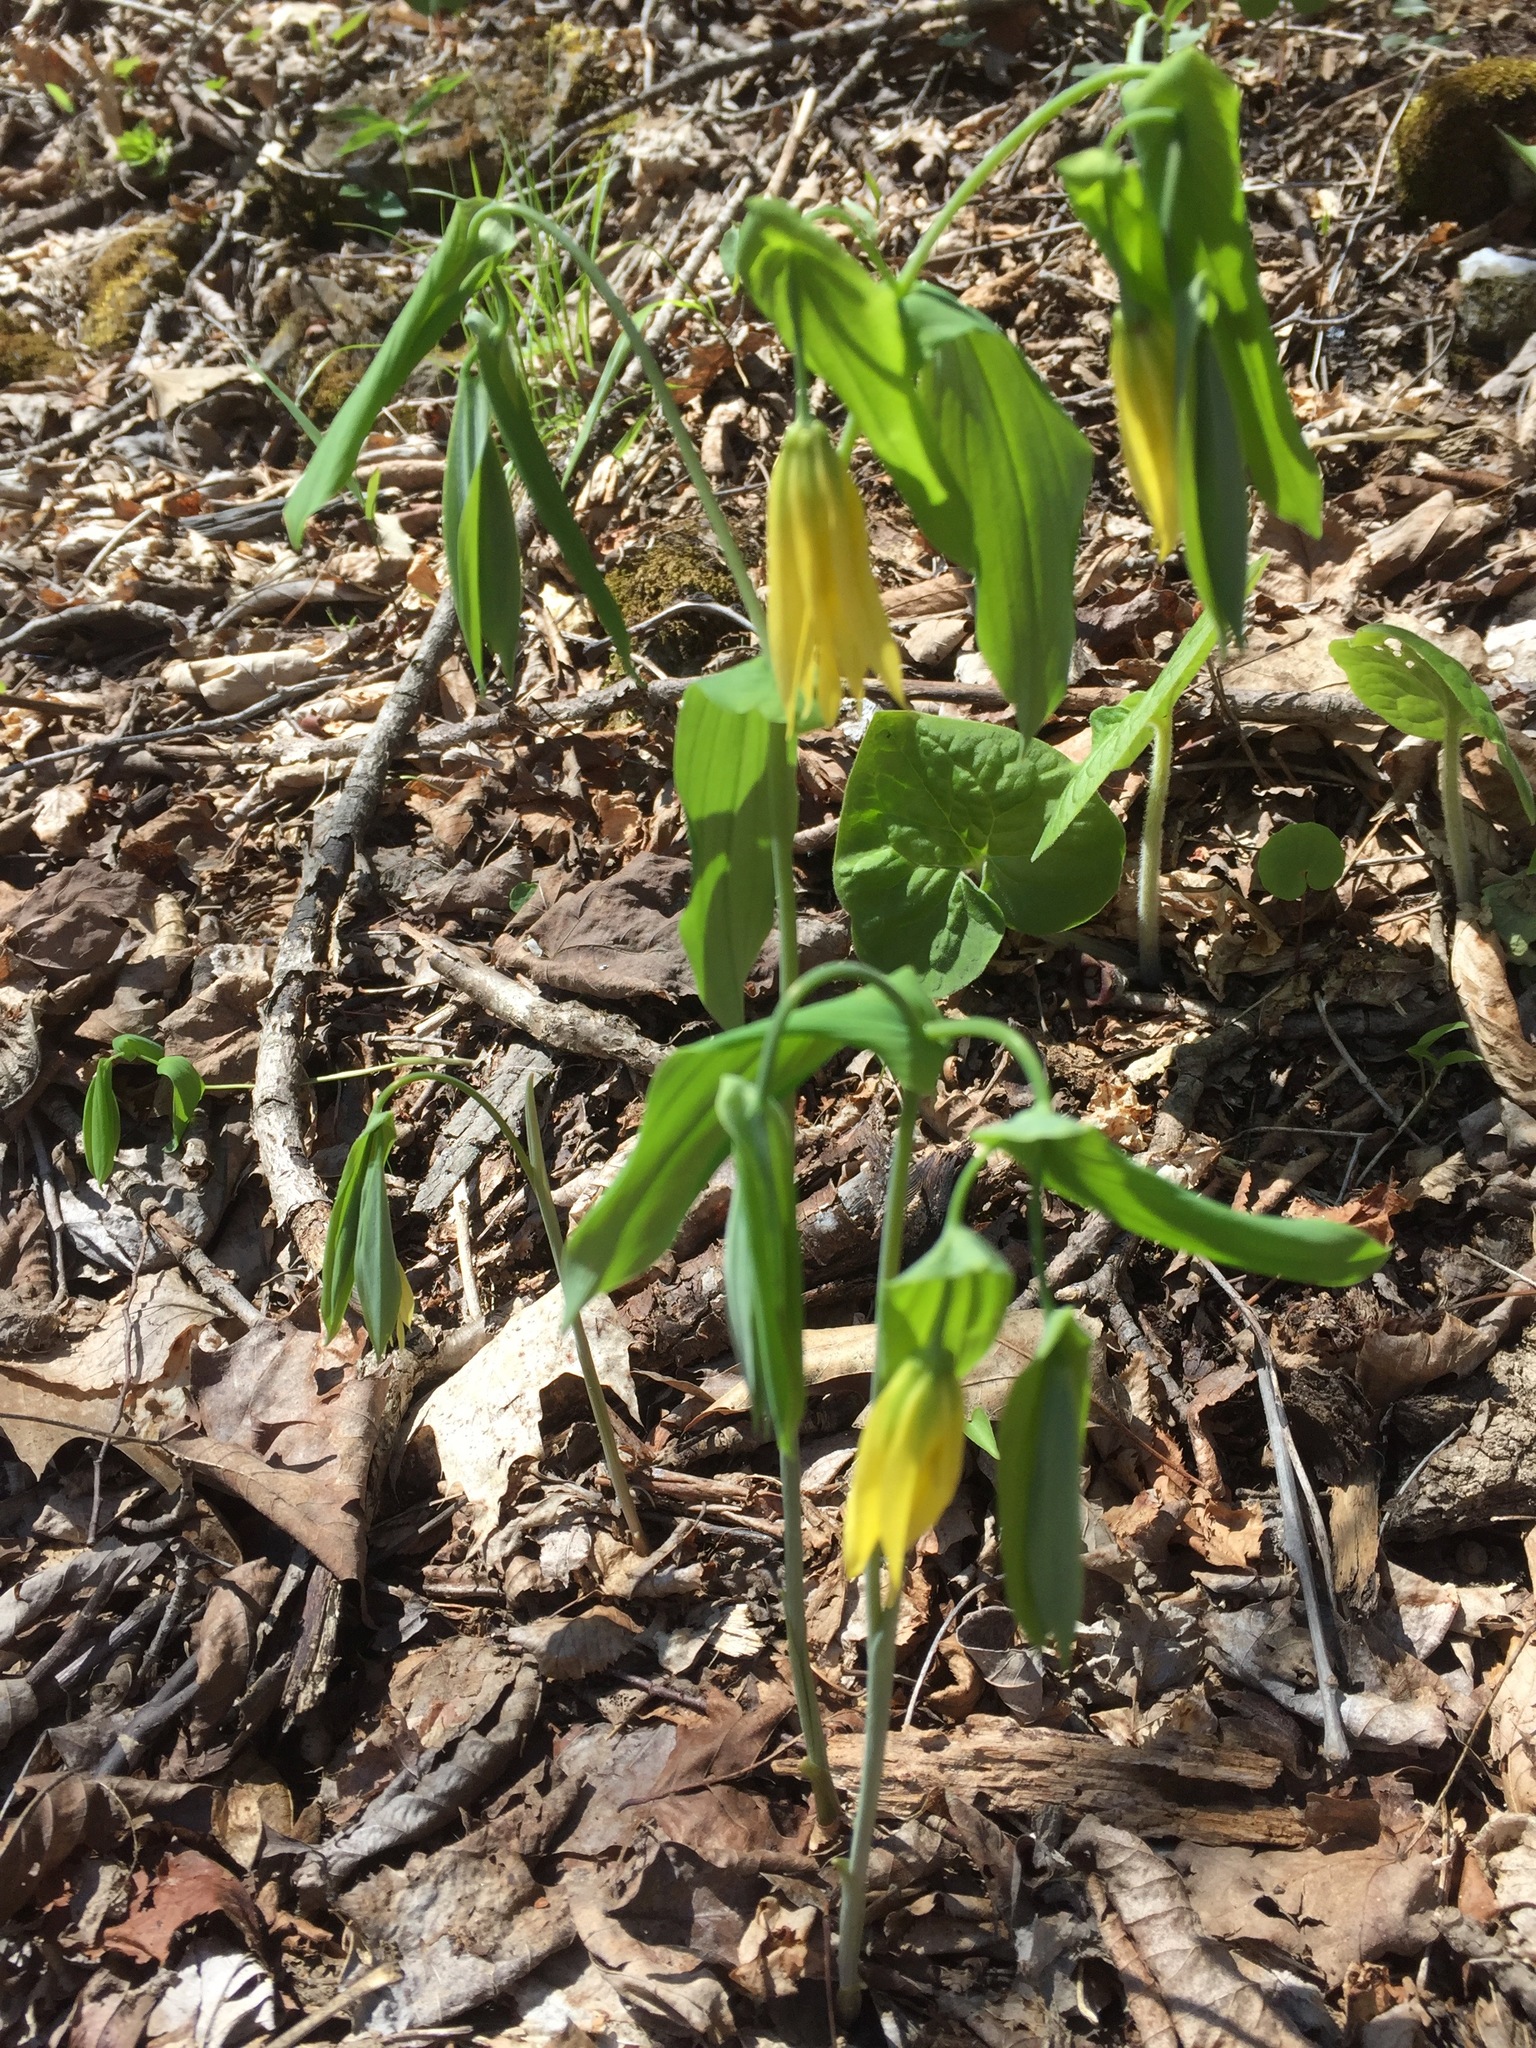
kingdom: Plantae
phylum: Tracheophyta
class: Liliopsida
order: Liliales
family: Colchicaceae
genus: Uvularia
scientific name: Uvularia grandiflora
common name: Bellwort
